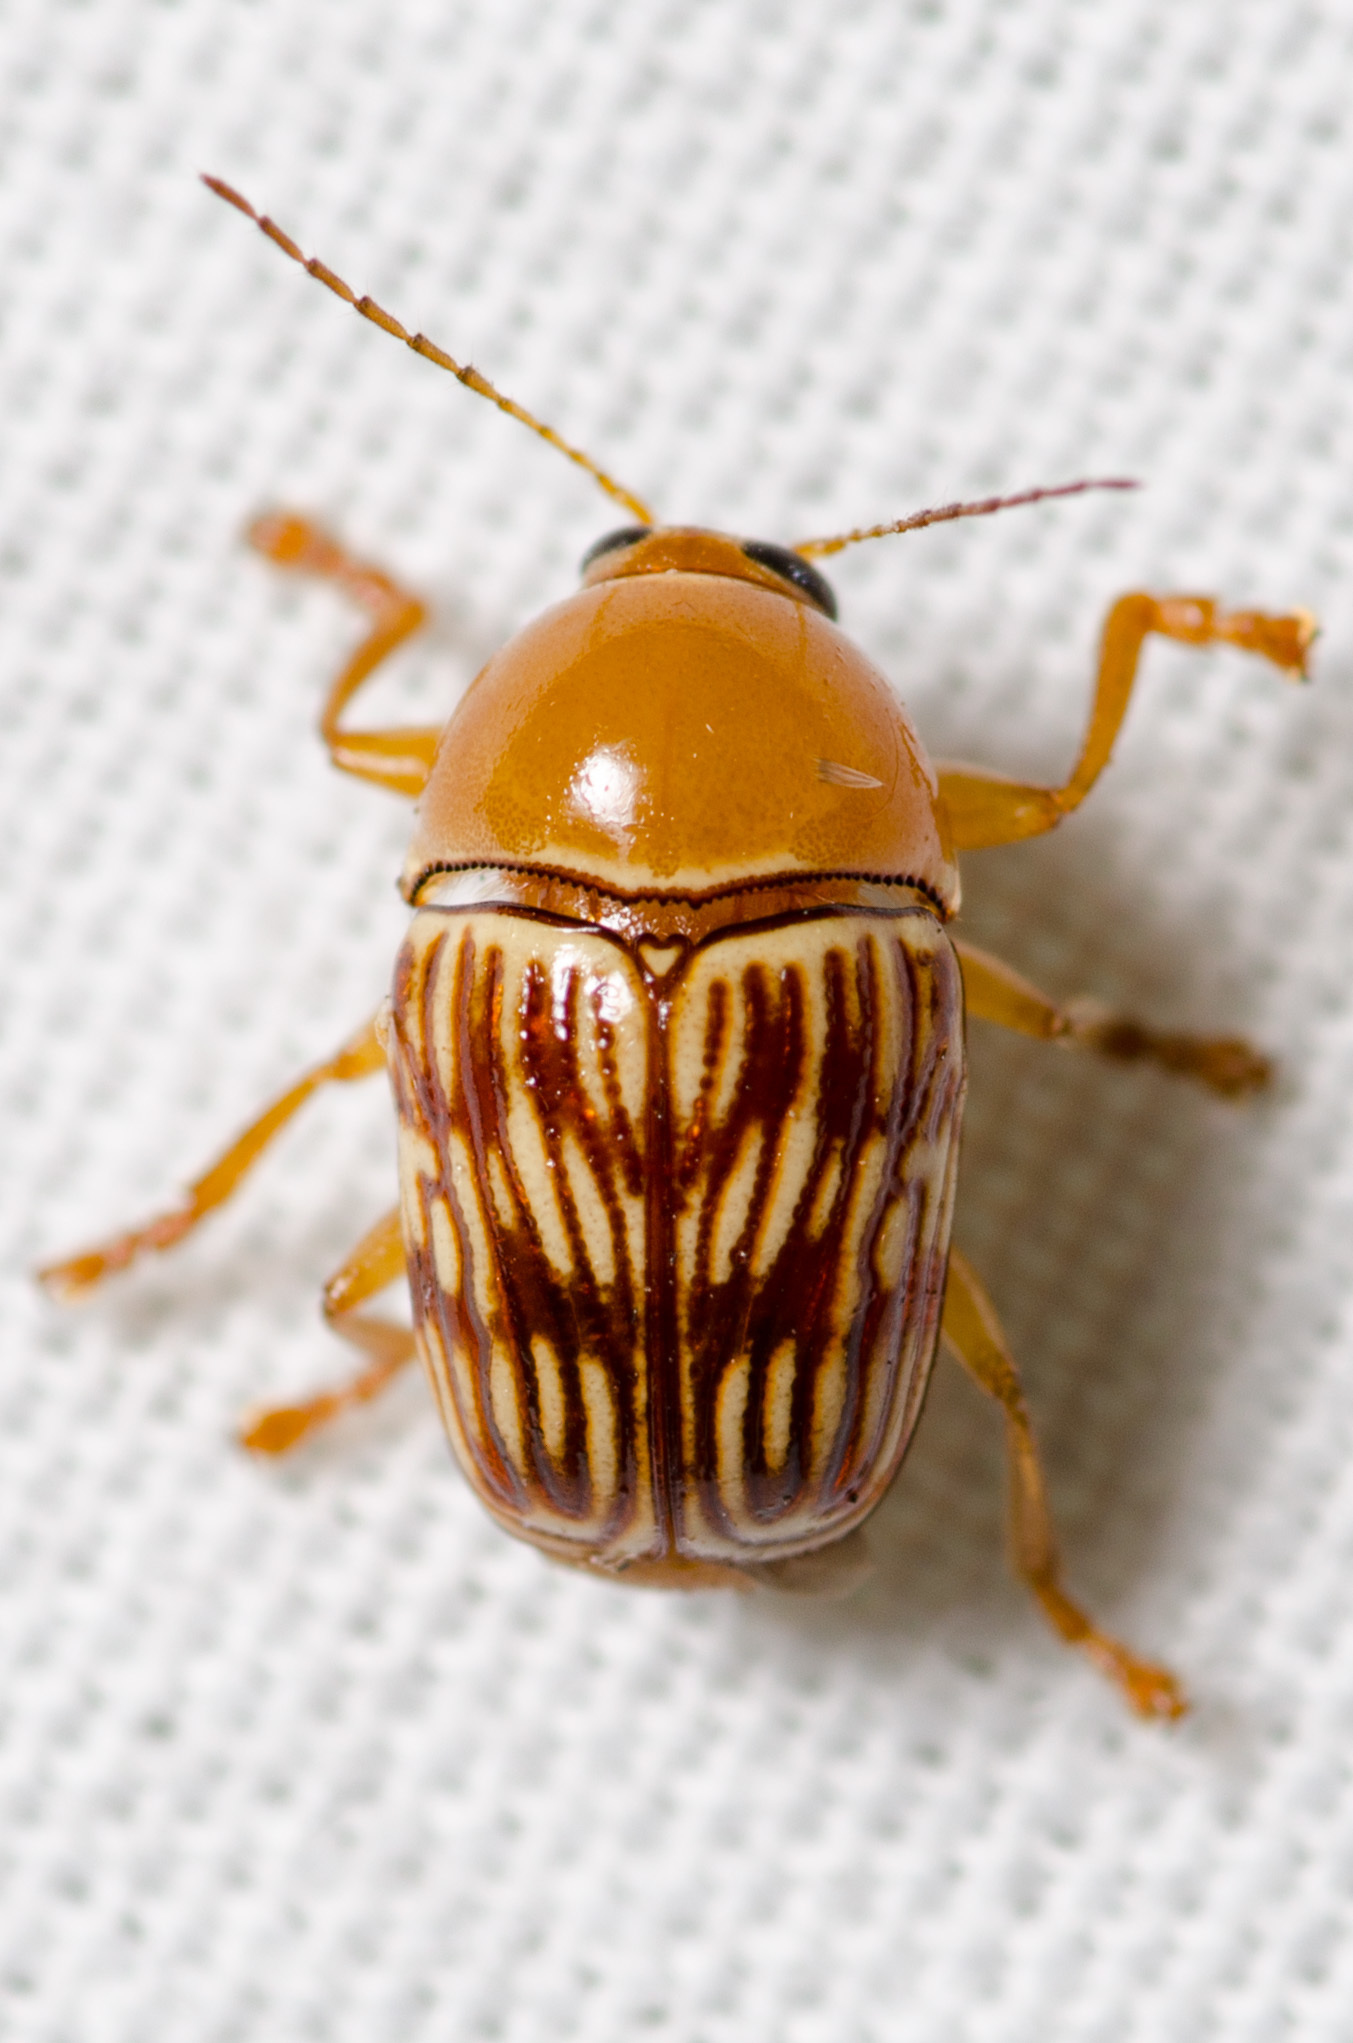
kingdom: Animalia
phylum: Arthropoda
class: Insecta
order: Coleoptera
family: Chrysomelidae
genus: Cryptocephalus
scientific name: Cryptocephalus fulguratus
